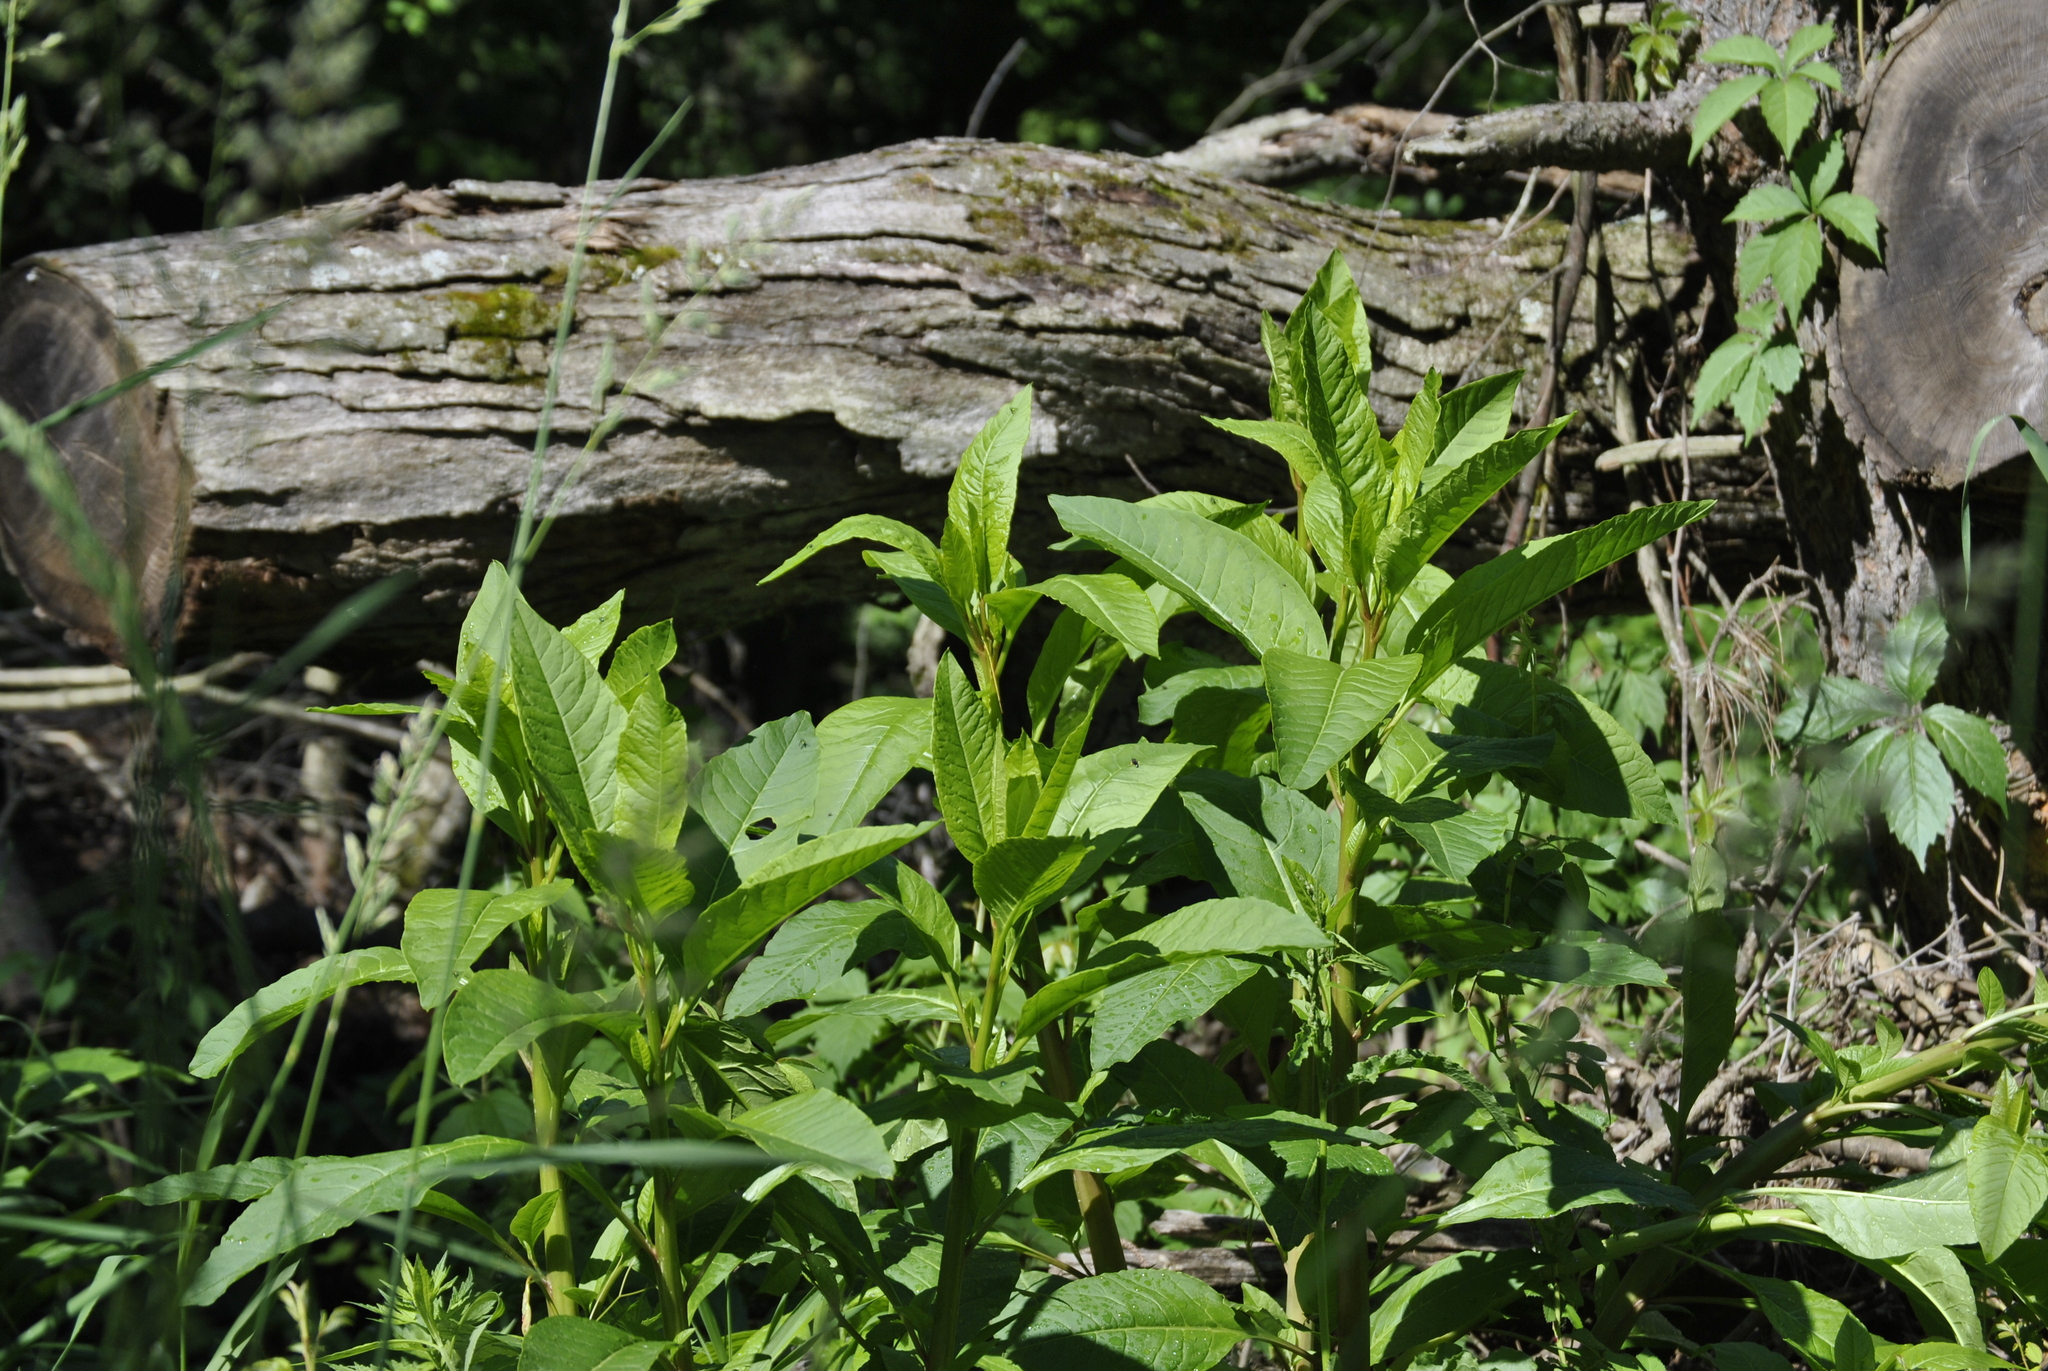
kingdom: Plantae
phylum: Tracheophyta
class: Magnoliopsida
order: Caryophyllales
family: Phytolaccaceae
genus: Phytolacca
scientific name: Phytolacca americana
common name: American pokeweed
